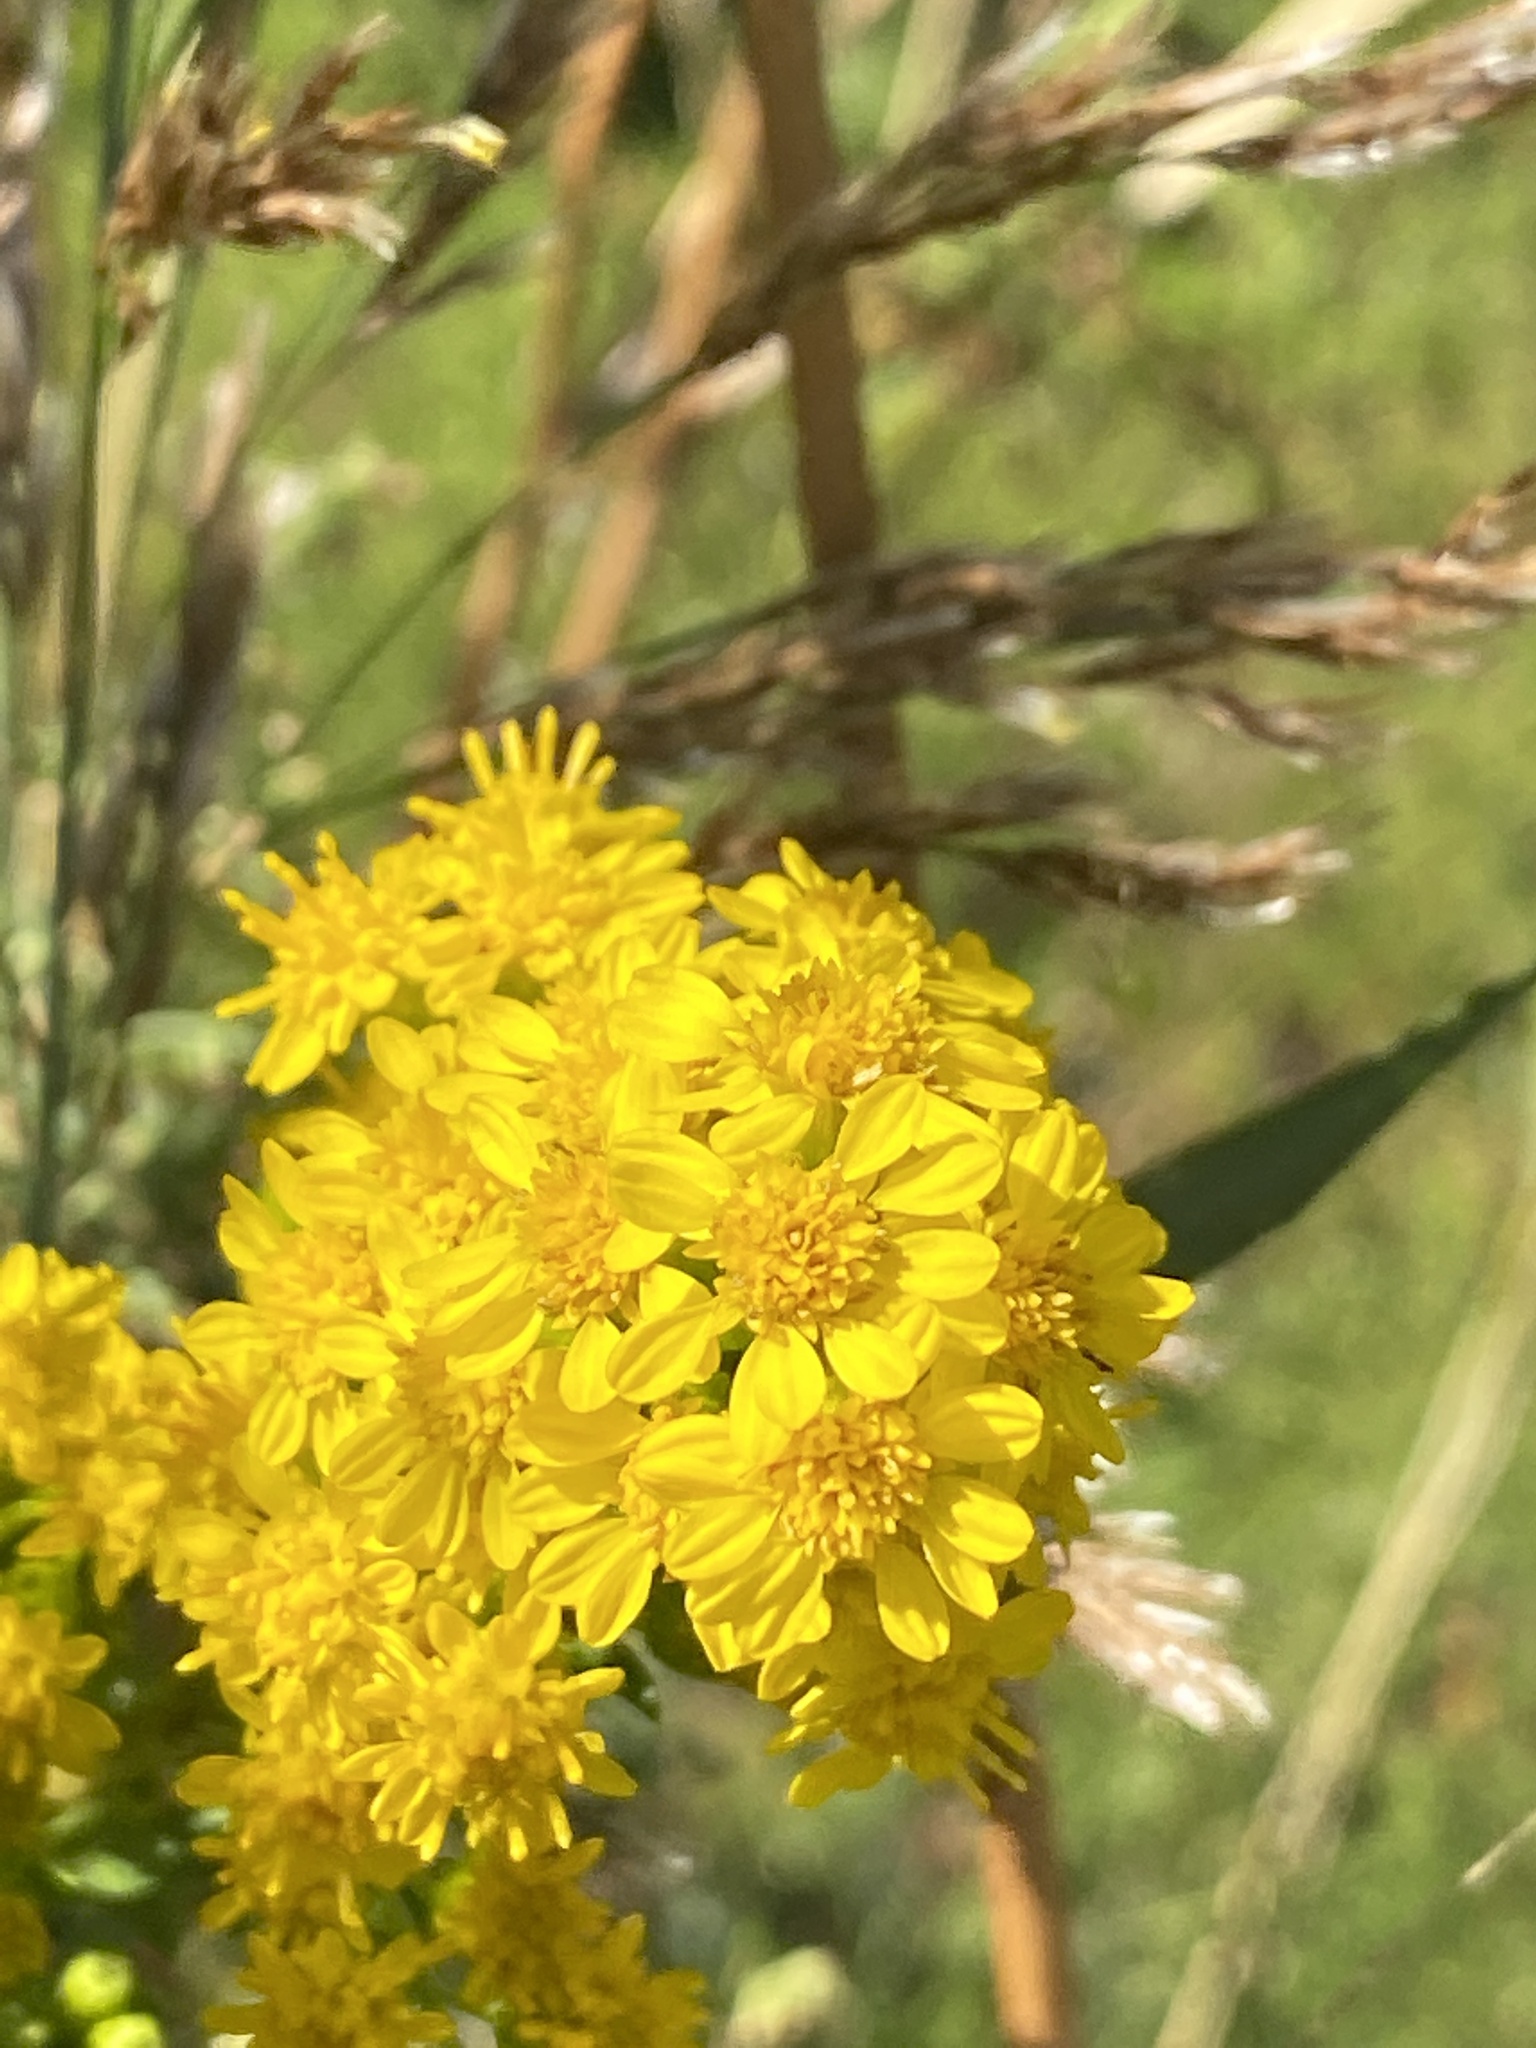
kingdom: Plantae
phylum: Tracheophyta
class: Magnoliopsida
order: Asterales
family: Asteraceae
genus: Solidago
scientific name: Solidago sempervirens
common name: Salt-marsh goldenrod
